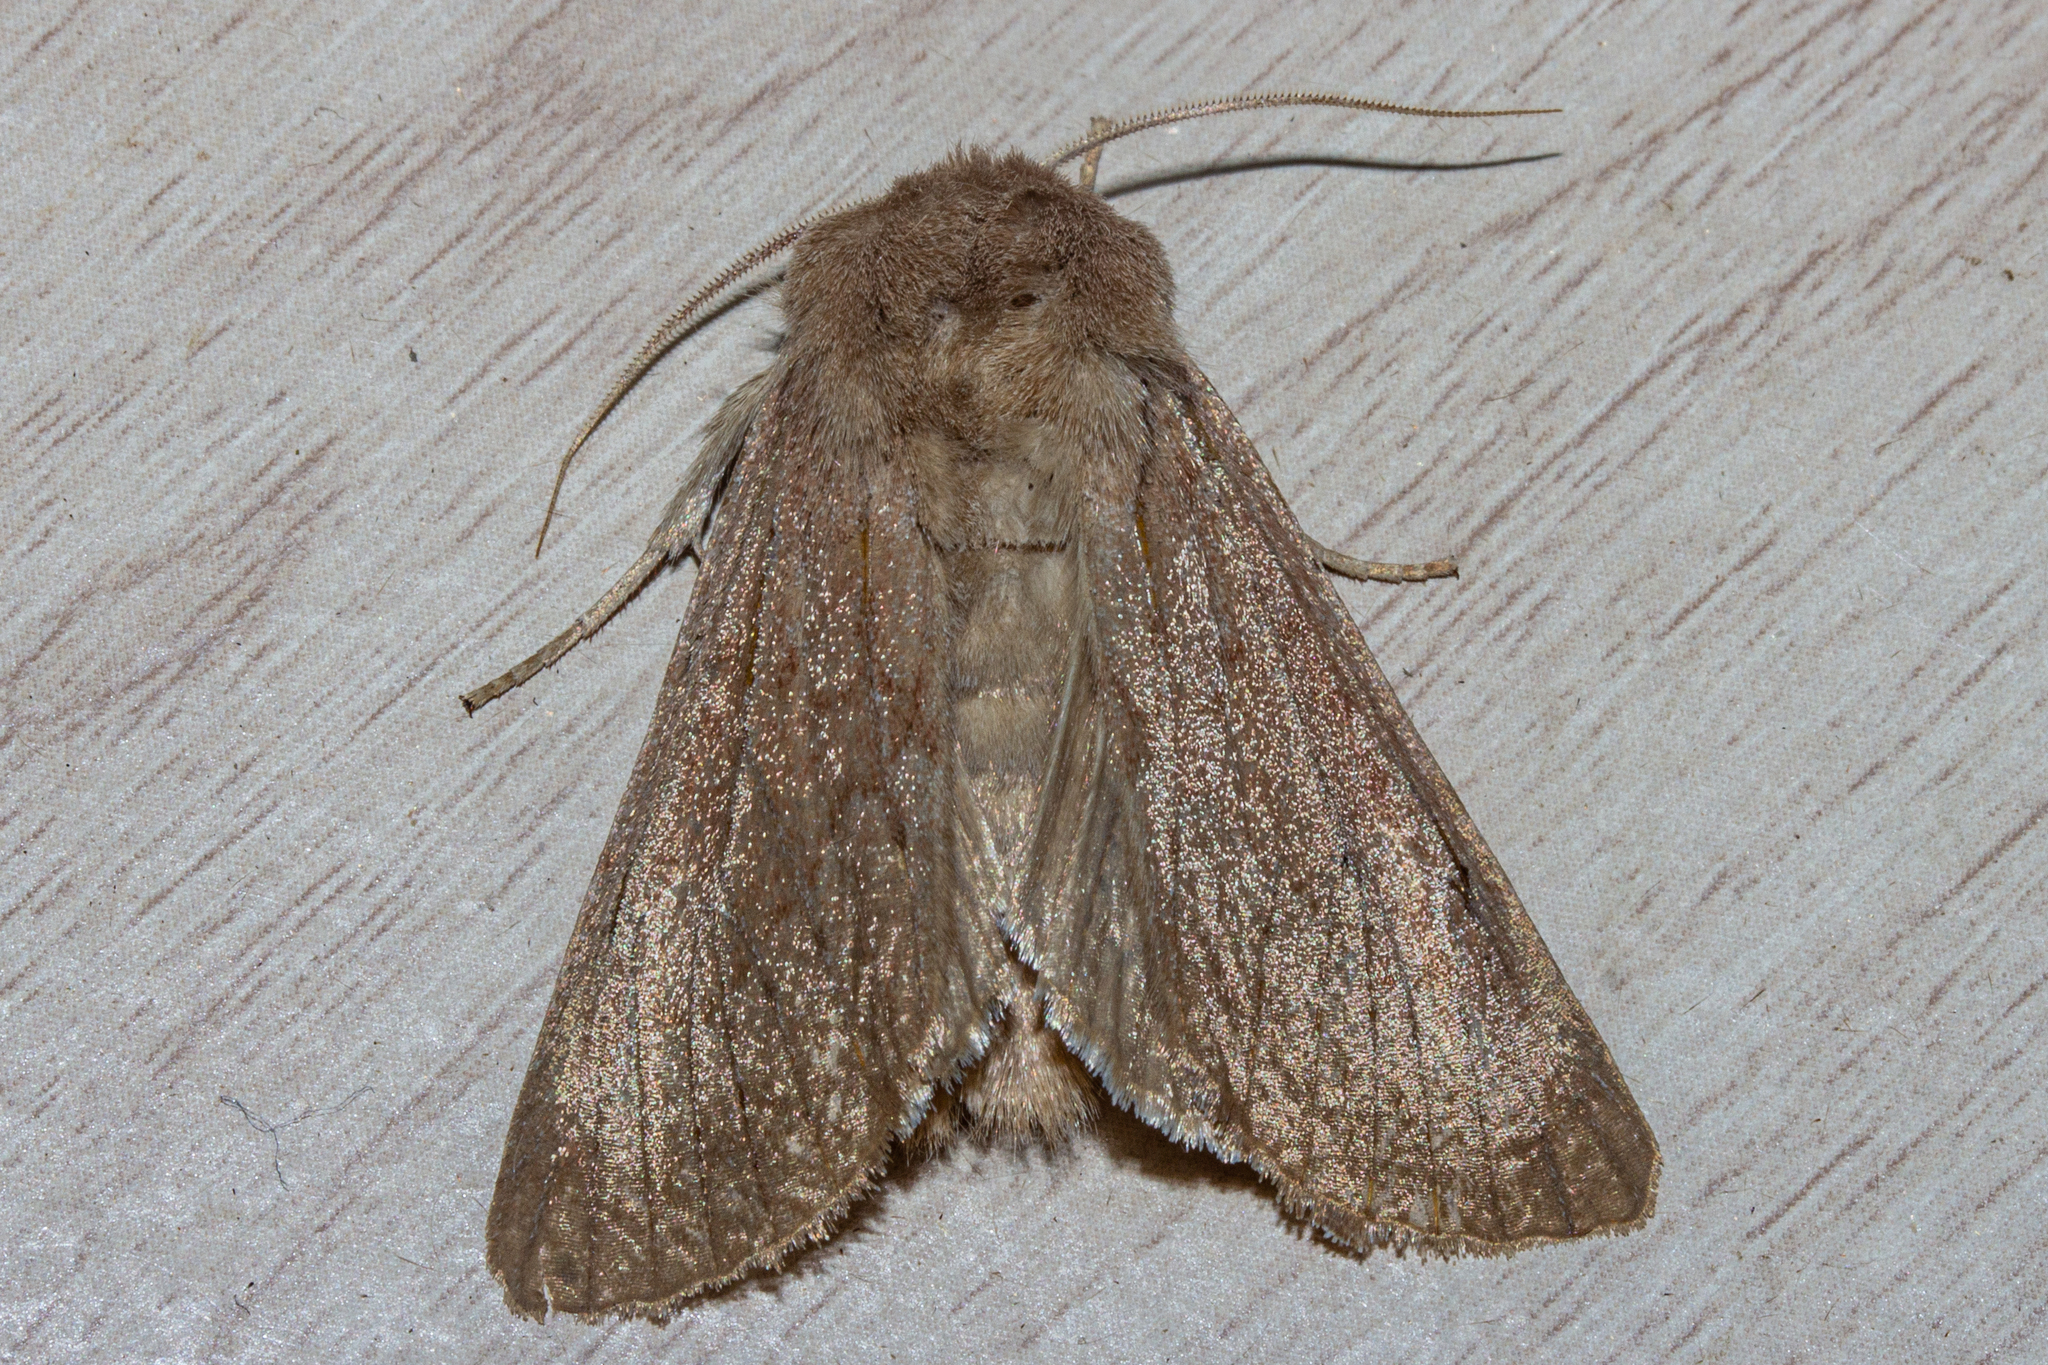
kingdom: Animalia
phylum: Arthropoda
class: Insecta
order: Lepidoptera
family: Noctuidae
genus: Ichneutica
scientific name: Ichneutica nullifera
